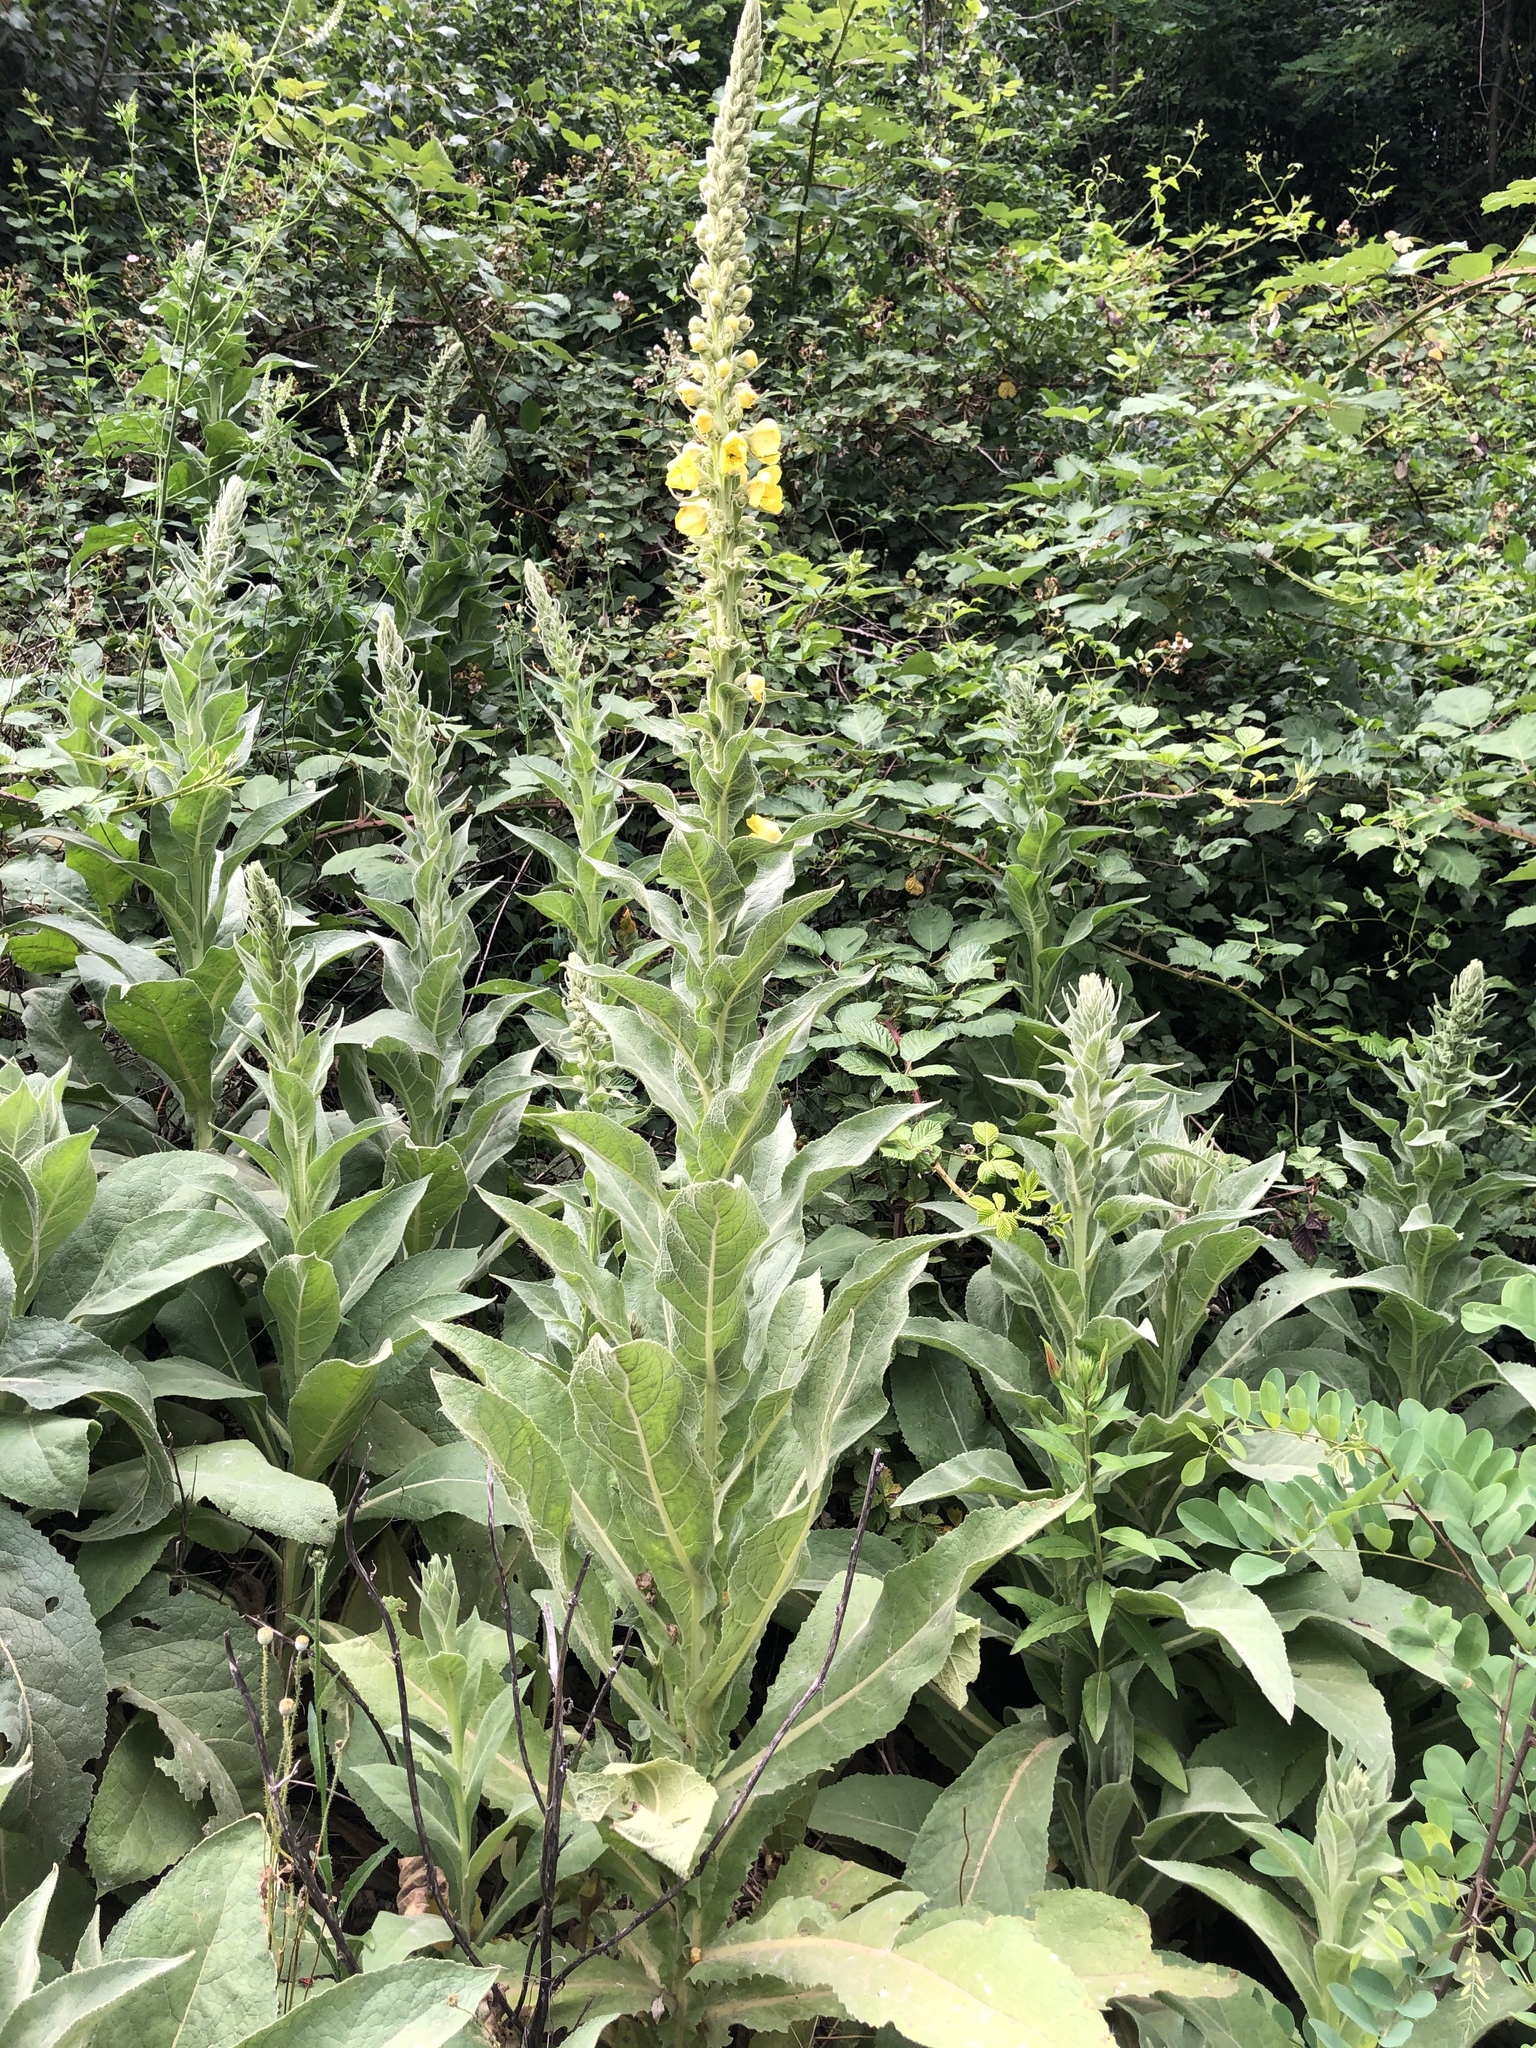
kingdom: Plantae
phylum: Tracheophyta
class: Magnoliopsida
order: Lamiales
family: Scrophulariaceae
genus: Verbascum
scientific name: Verbascum thapsus
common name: Common mullein
